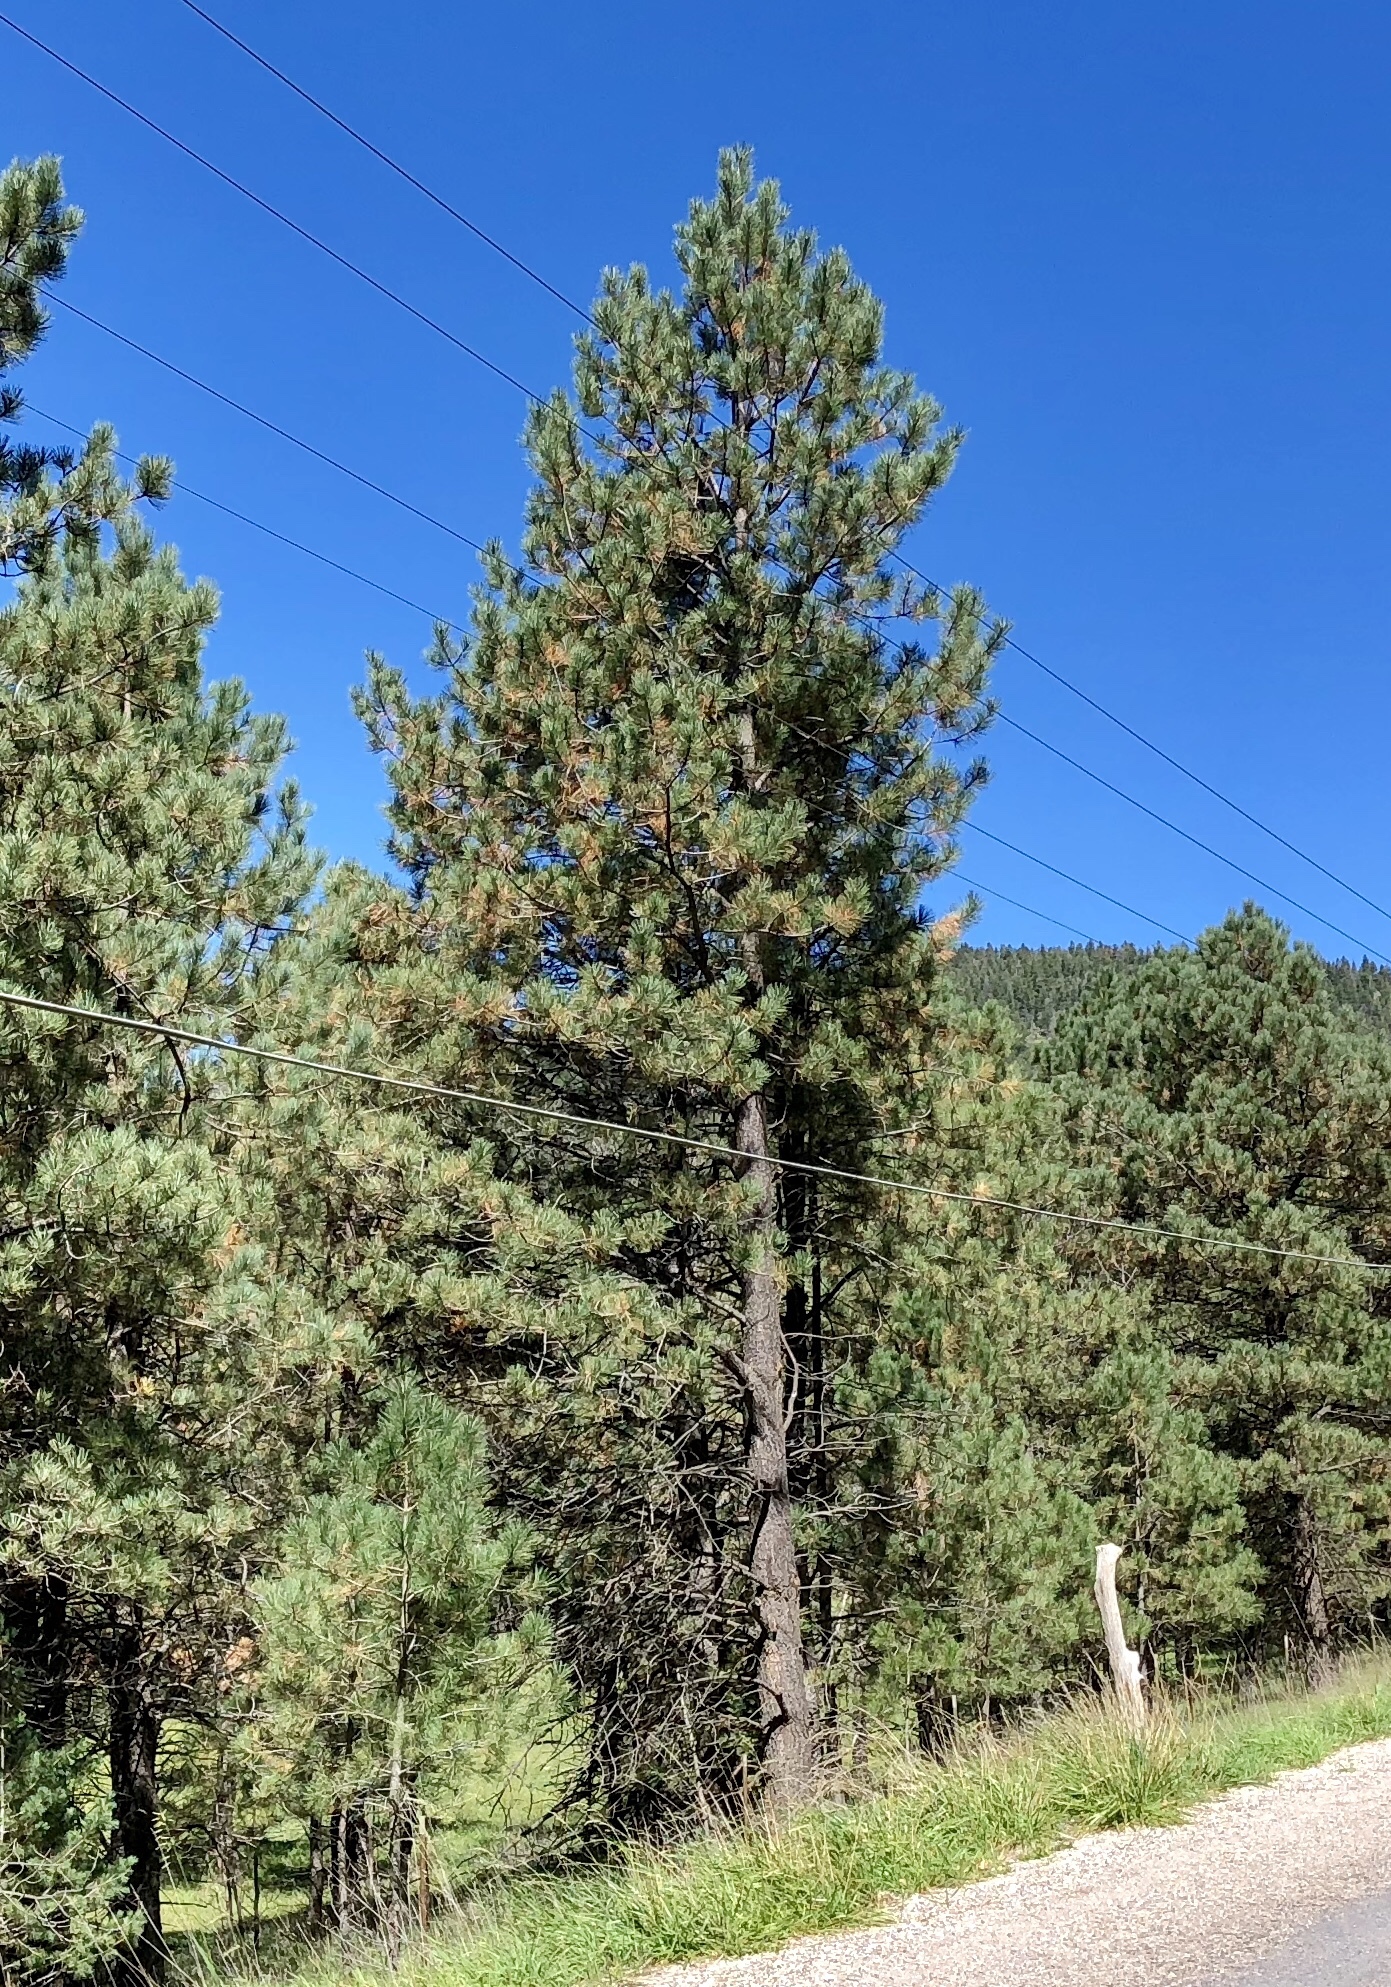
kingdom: Plantae
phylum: Tracheophyta
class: Pinopsida
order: Pinales
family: Pinaceae
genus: Pinus
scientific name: Pinus ponderosa
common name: Western yellow-pine
